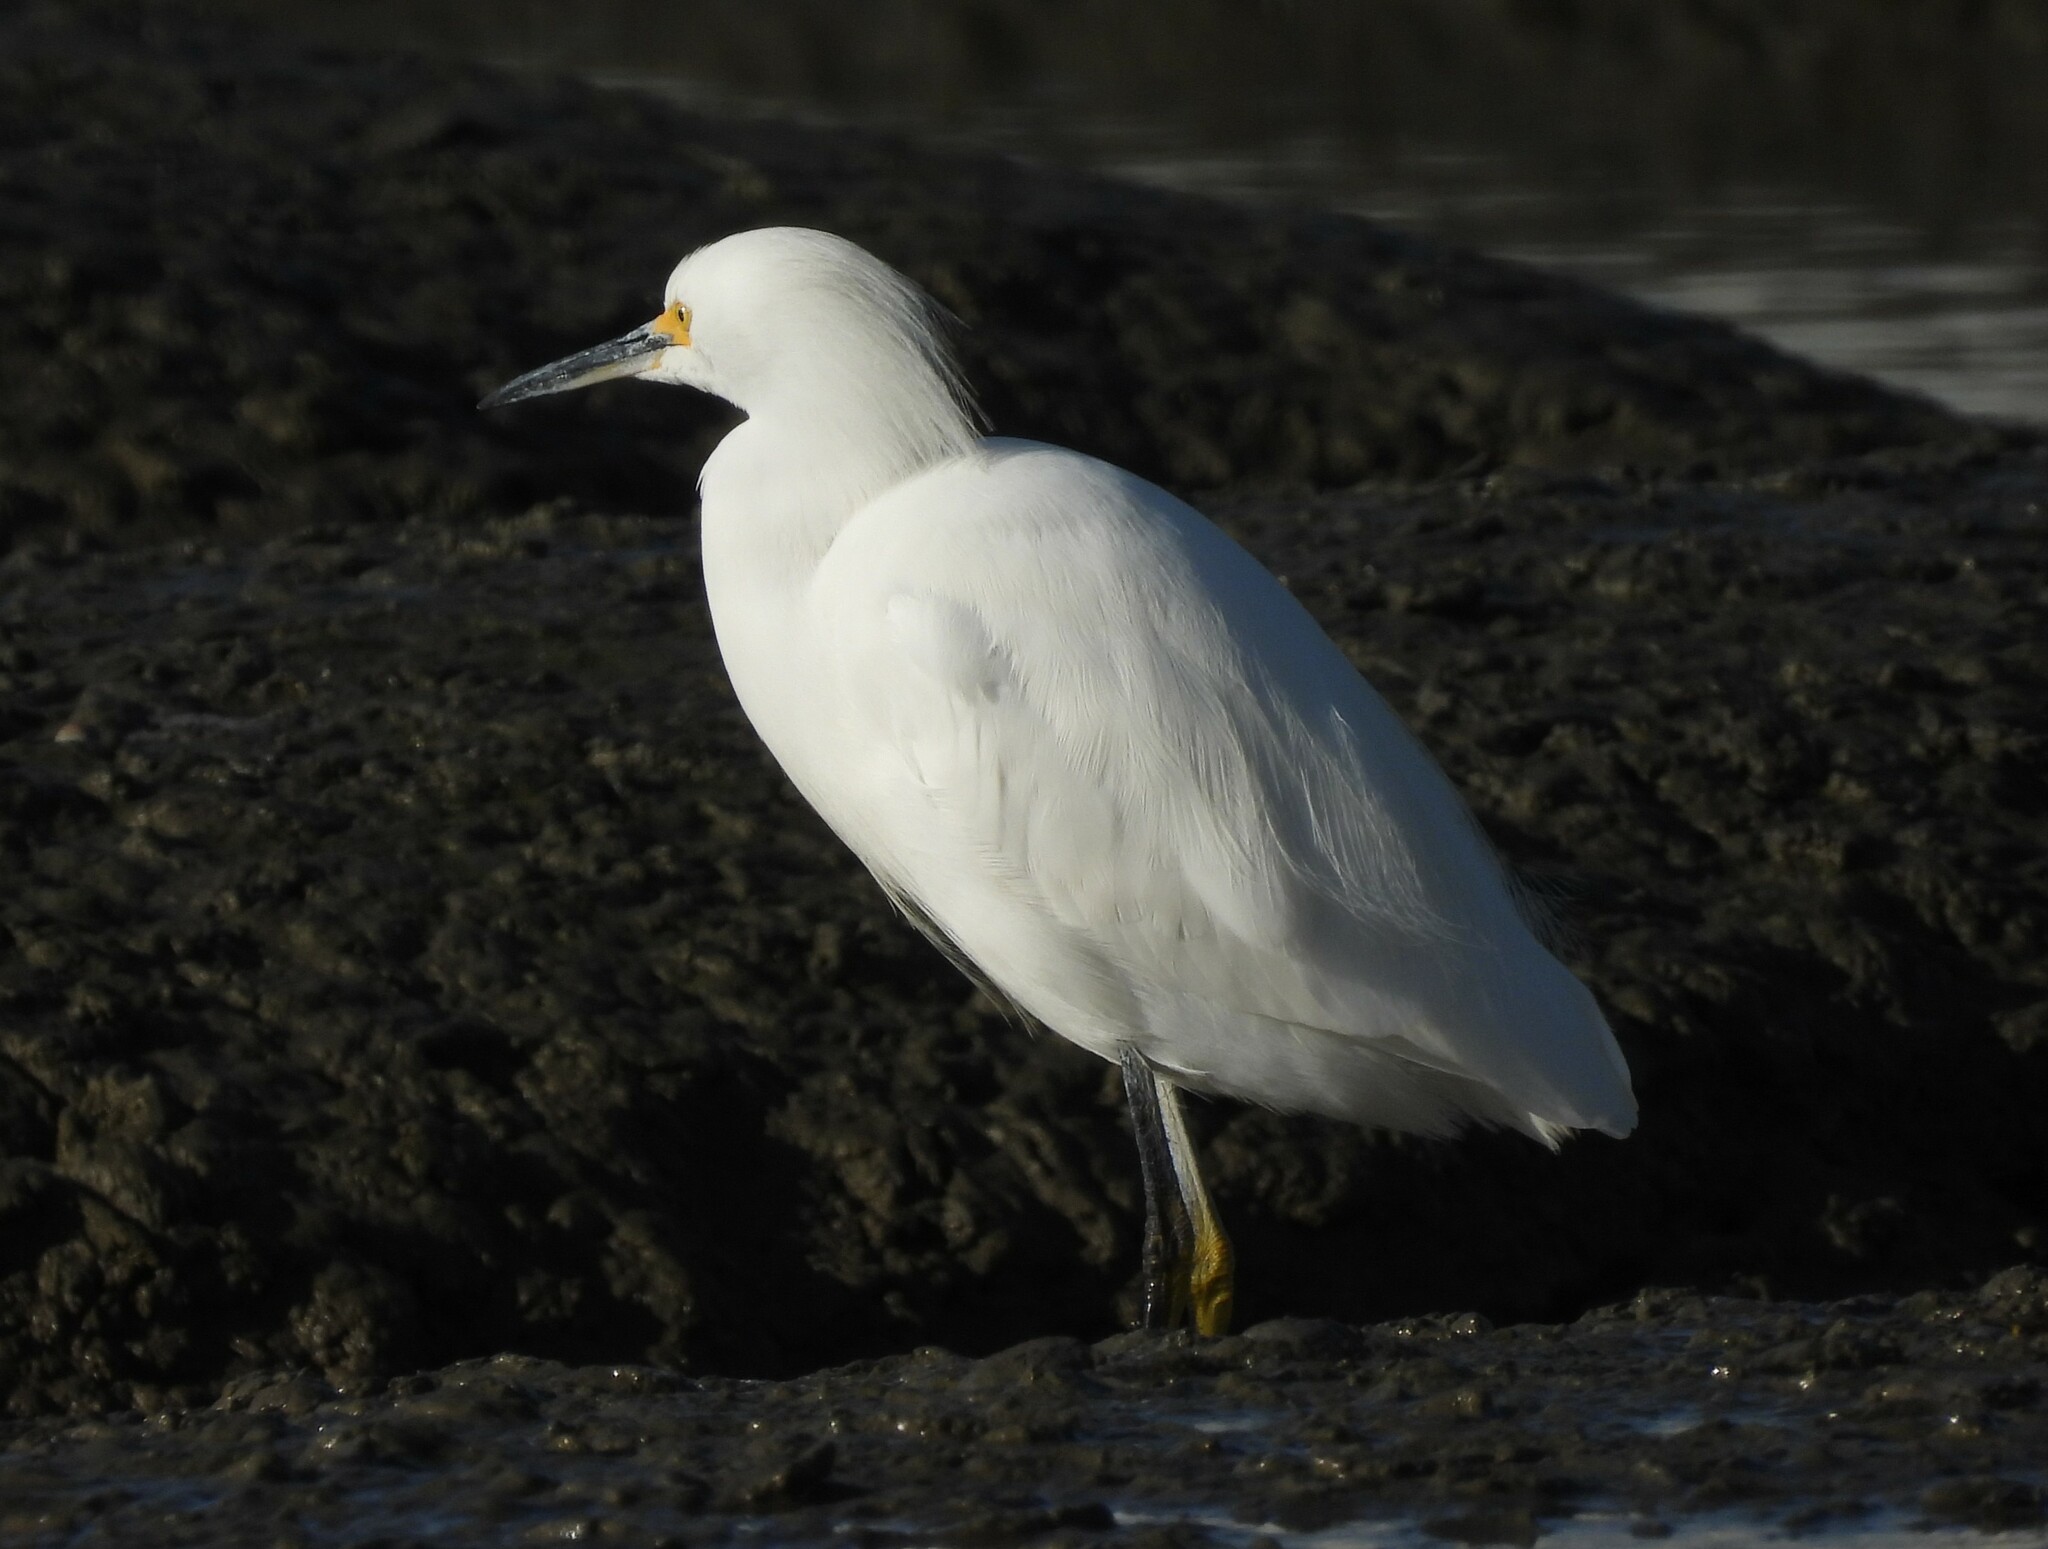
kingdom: Animalia
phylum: Chordata
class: Aves
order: Pelecaniformes
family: Ardeidae
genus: Egretta
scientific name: Egretta thula
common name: Snowy egret
